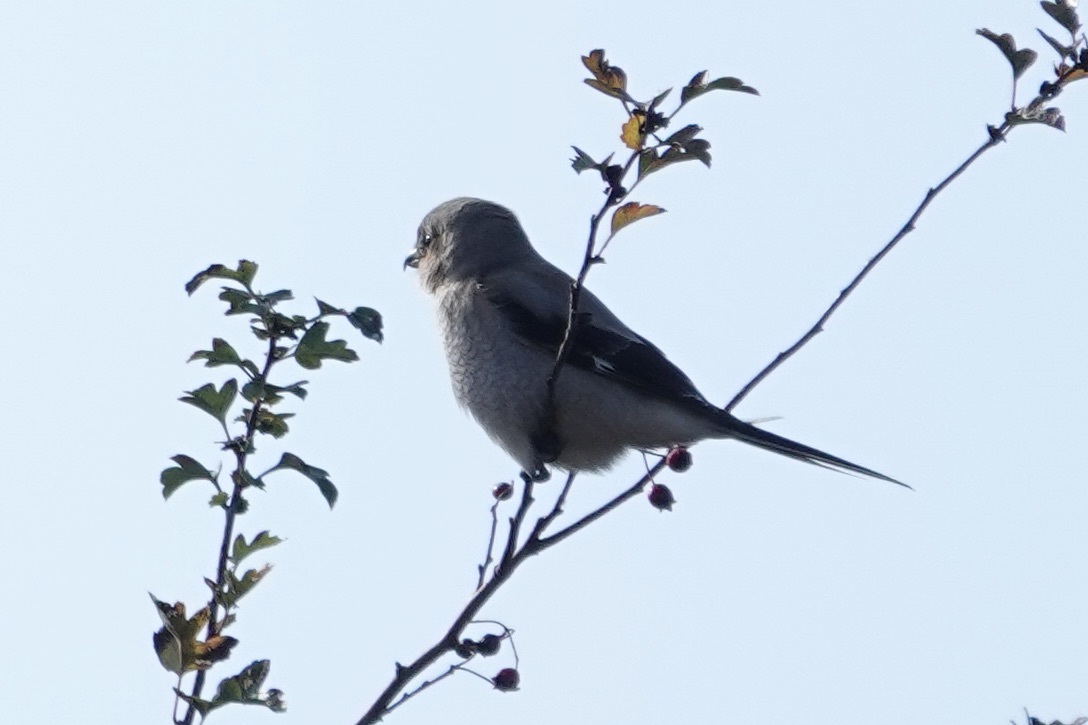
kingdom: Animalia
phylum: Chordata
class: Aves
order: Passeriformes
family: Laniidae
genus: Lanius
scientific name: Lanius borealis
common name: Northern shrike
